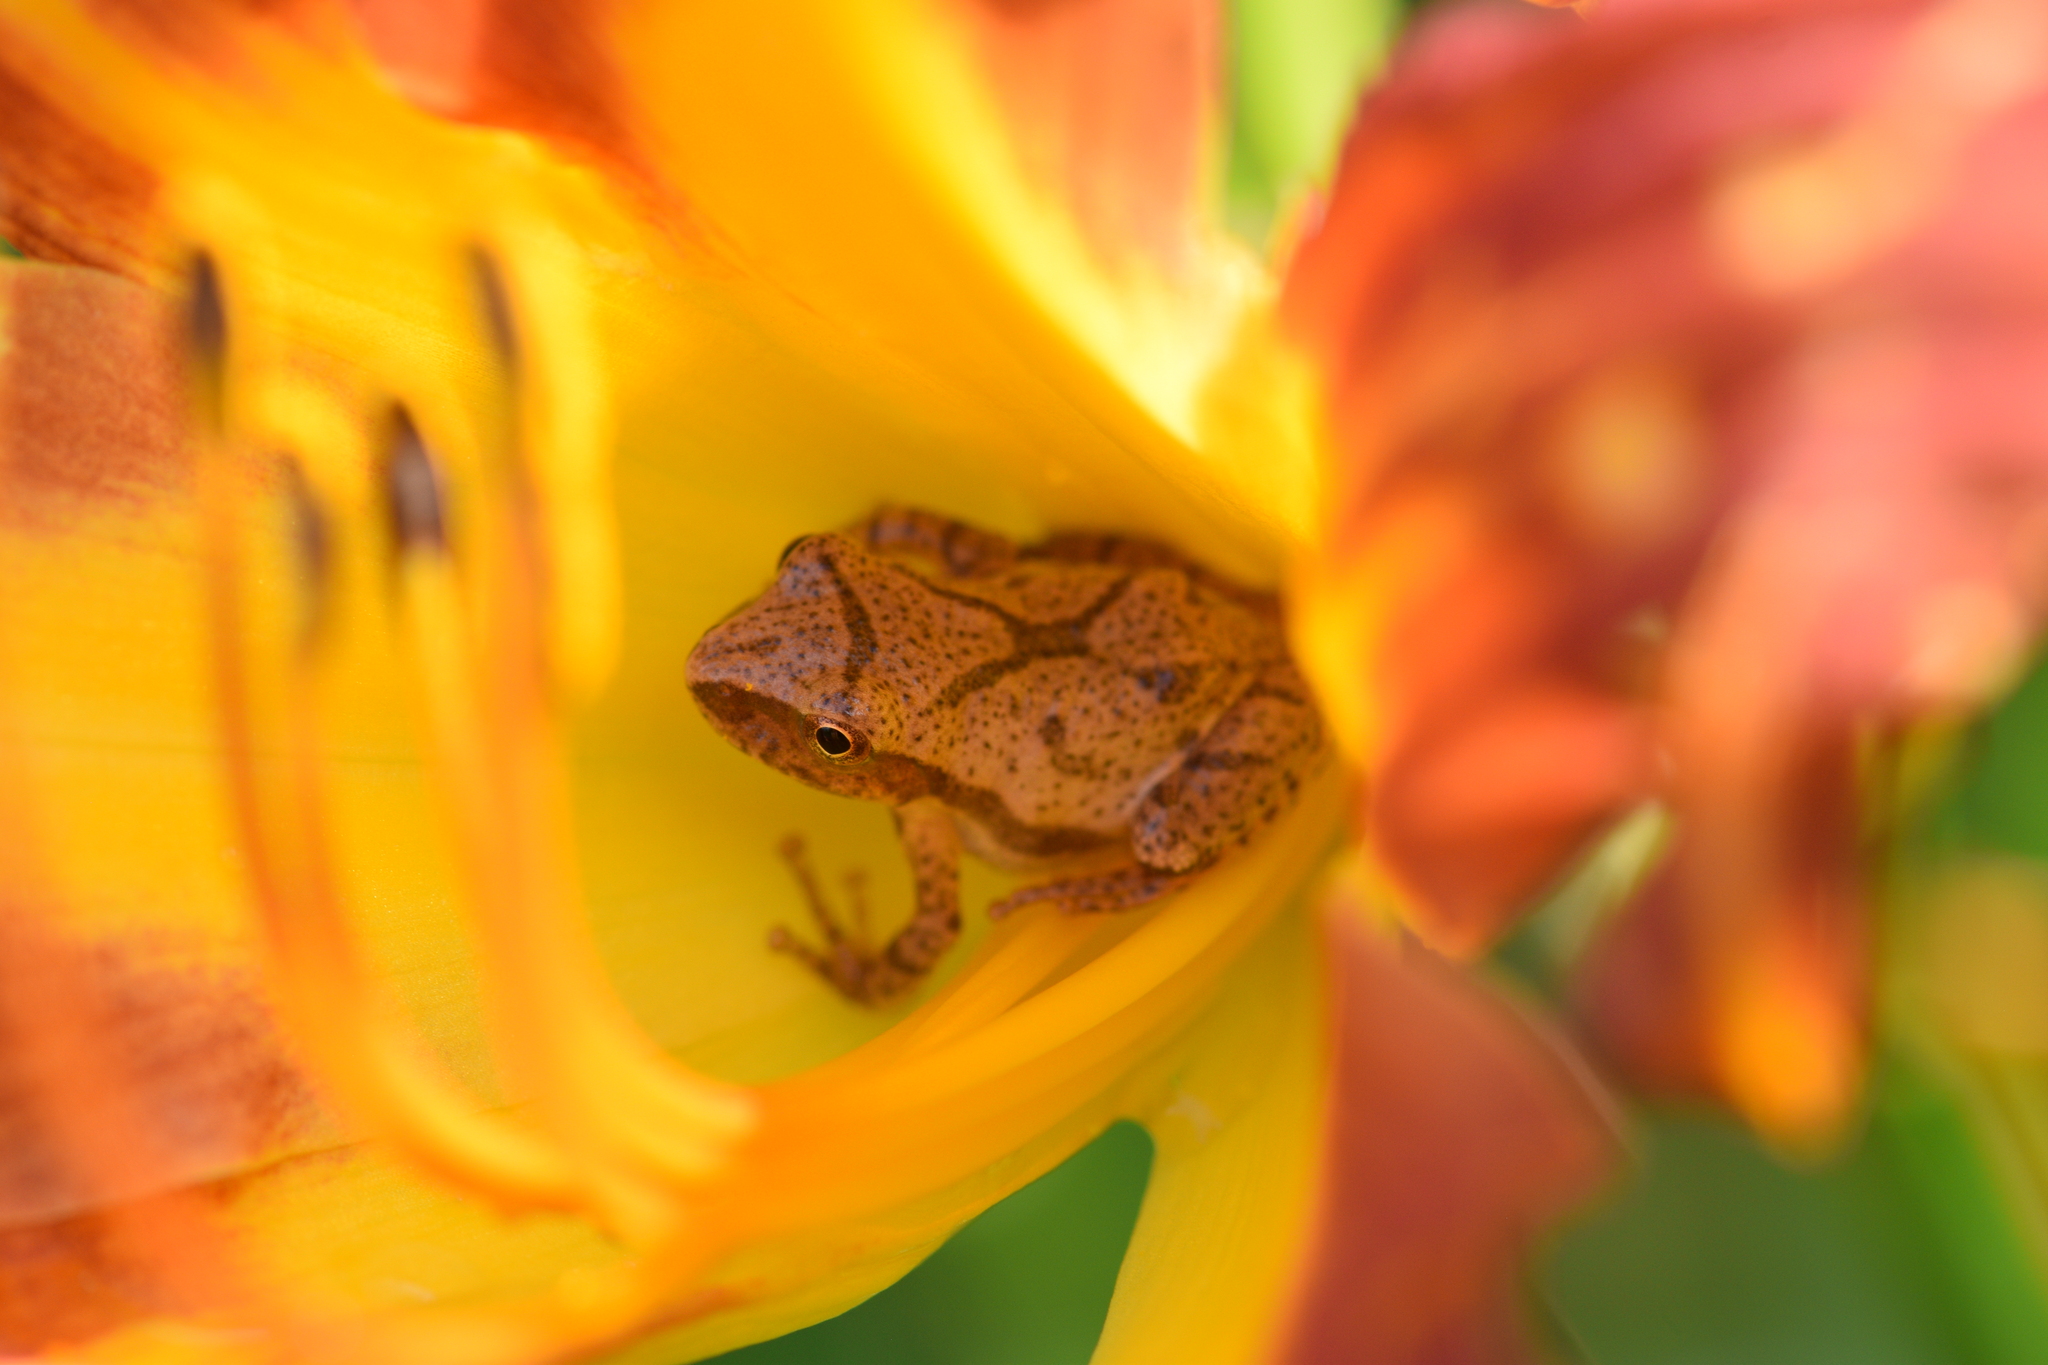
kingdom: Animalia
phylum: Chordata
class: Amphibia
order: Anura
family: Hylidae
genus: Pseudacris
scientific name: Pseudacris crucifer
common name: Spring peeper
